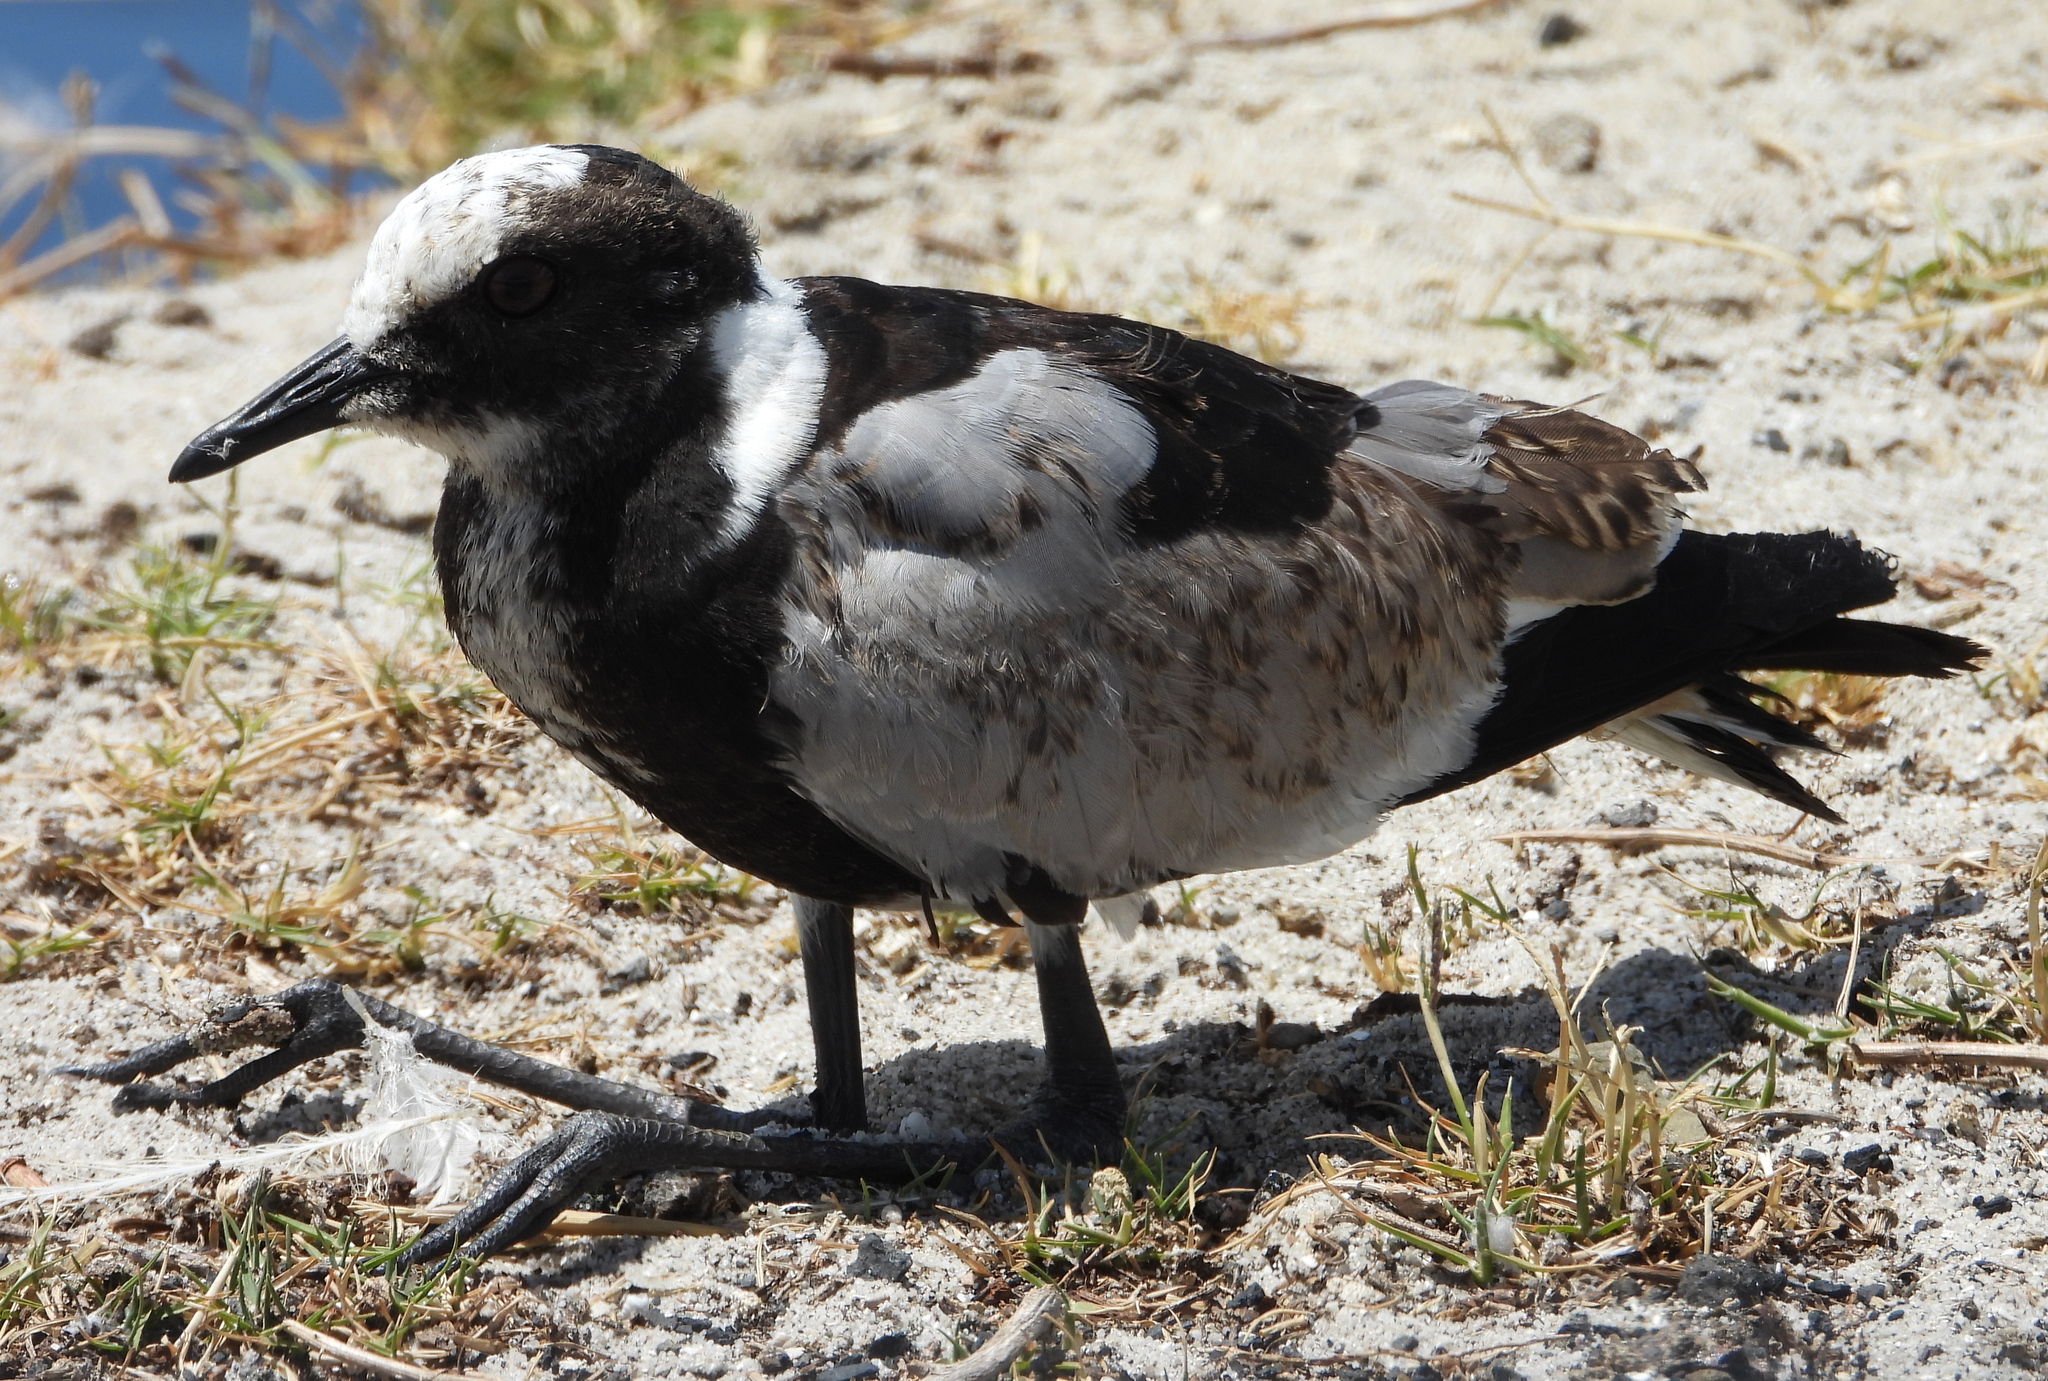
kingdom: Animalia
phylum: Chordata
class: Aves
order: Charadriiformes
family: Charadriidae
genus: Vanellus
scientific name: Vanellus armatus
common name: Blacksmith lapwing
